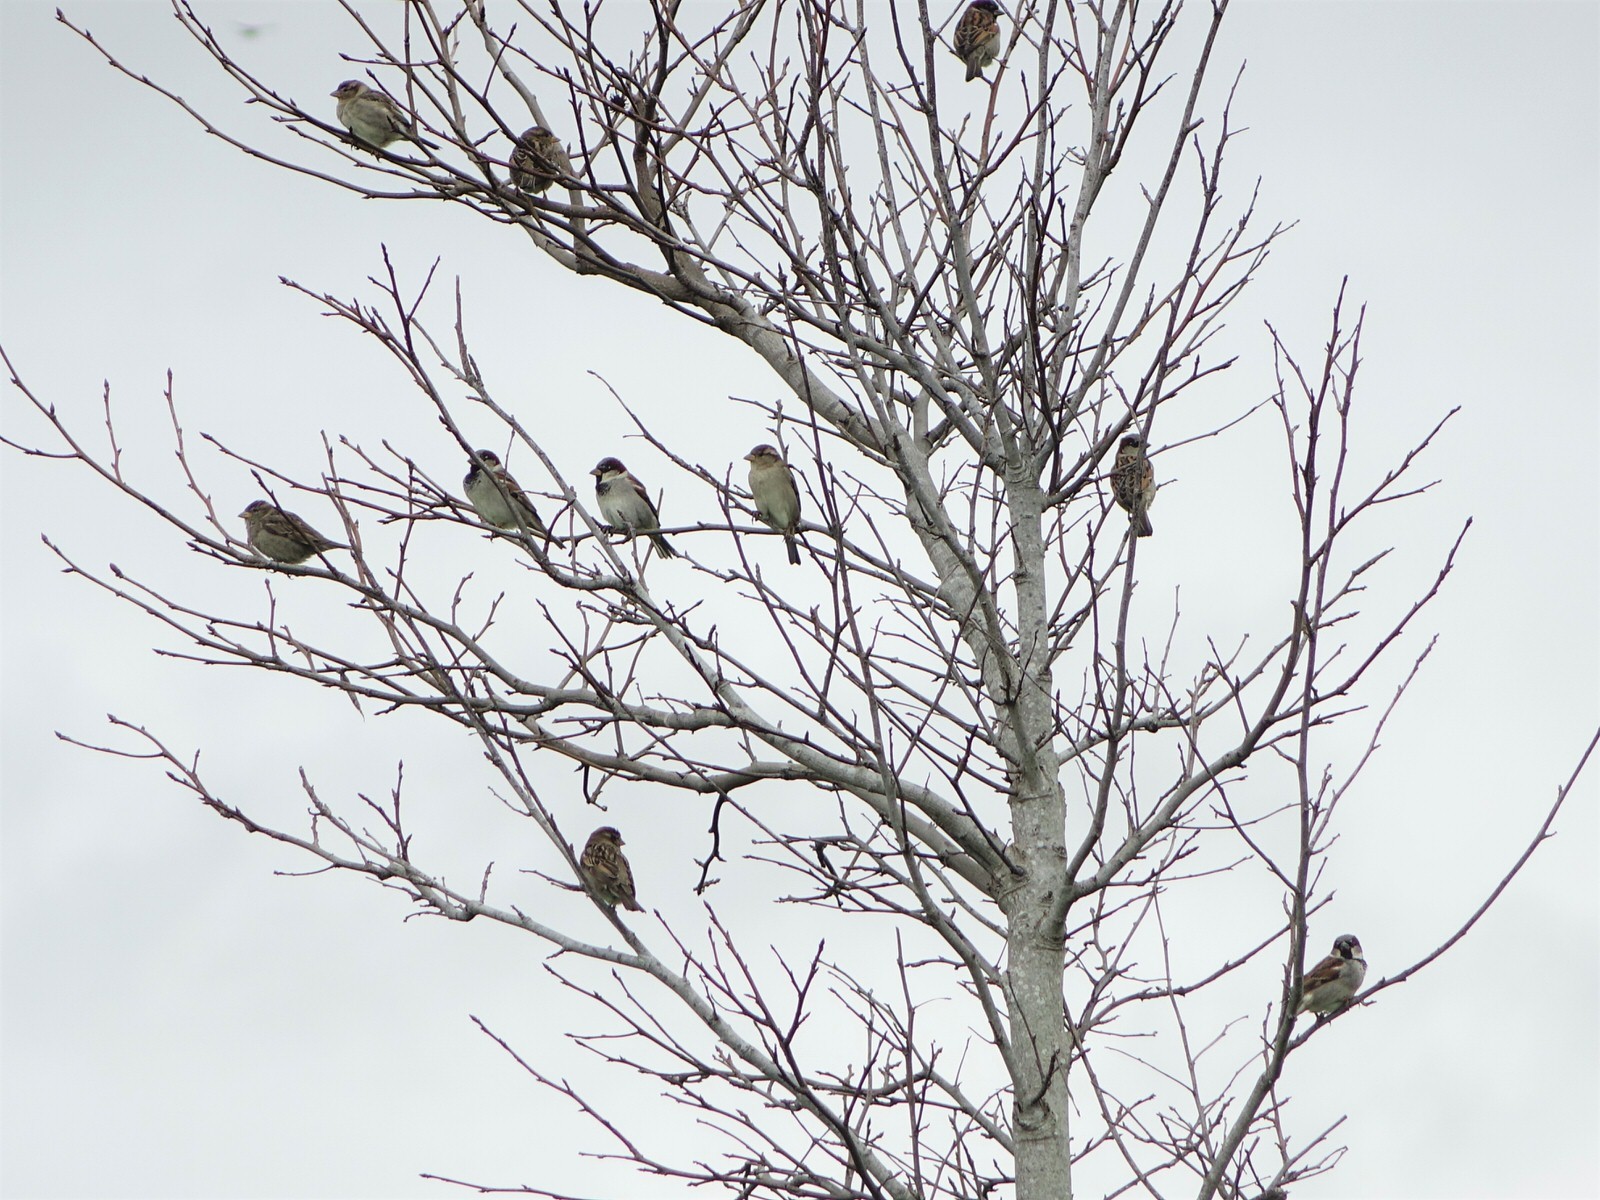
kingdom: Animalia
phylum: Chordata
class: Aves
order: Passeriformes
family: Passeridae
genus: Passer
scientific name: Passer domesticus
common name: House sparrow
